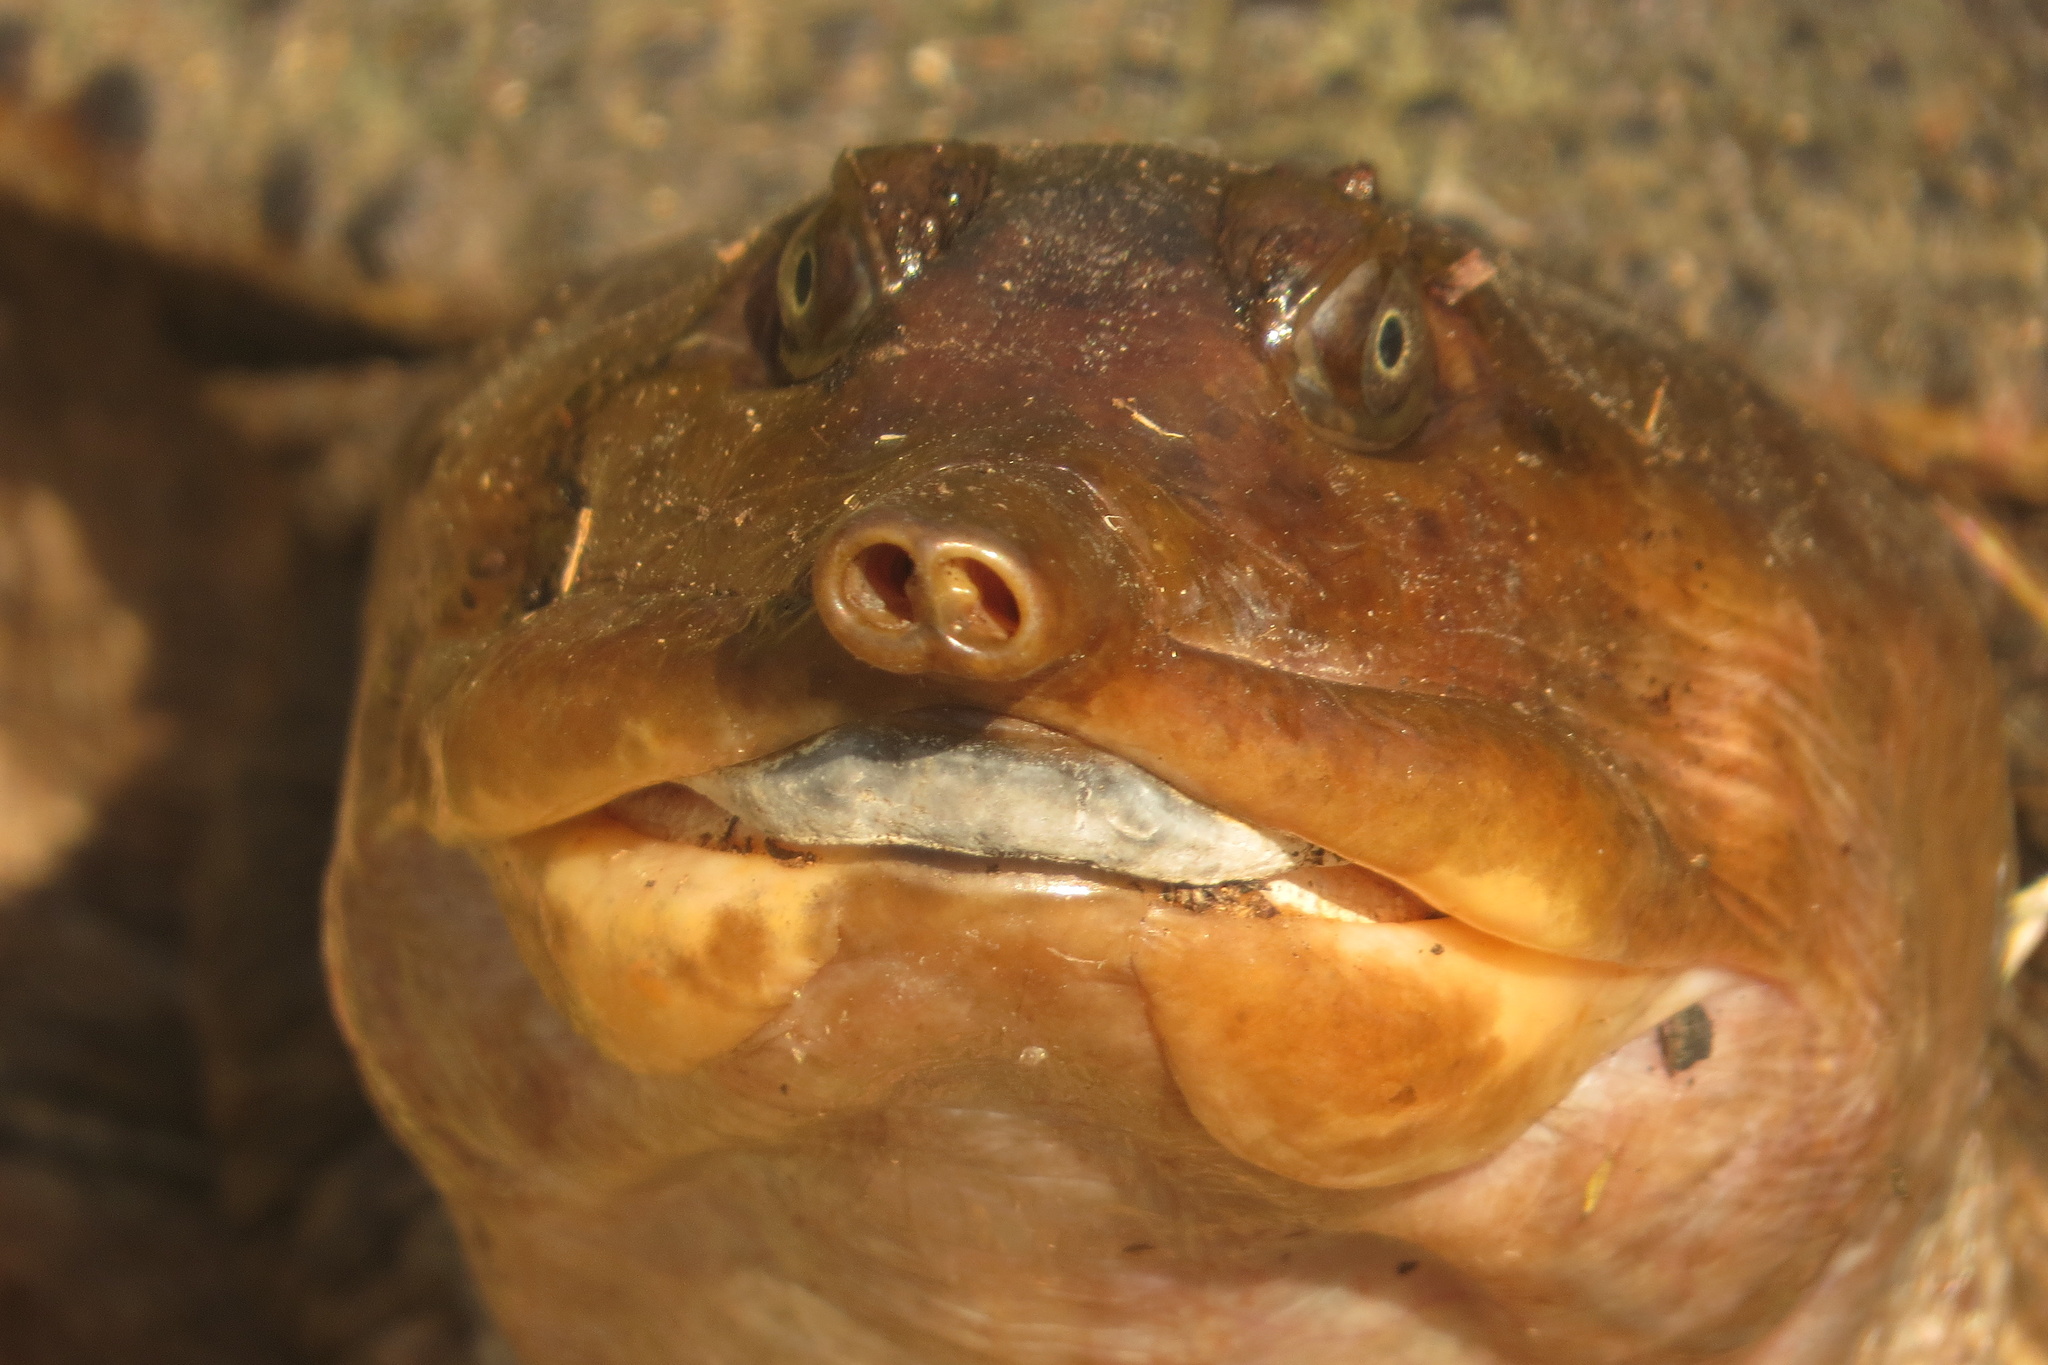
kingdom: Animalia
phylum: Chordata
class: Testudines
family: Trionychidae
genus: Apalone
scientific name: Apalone ferox
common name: Florida softshell turtle
